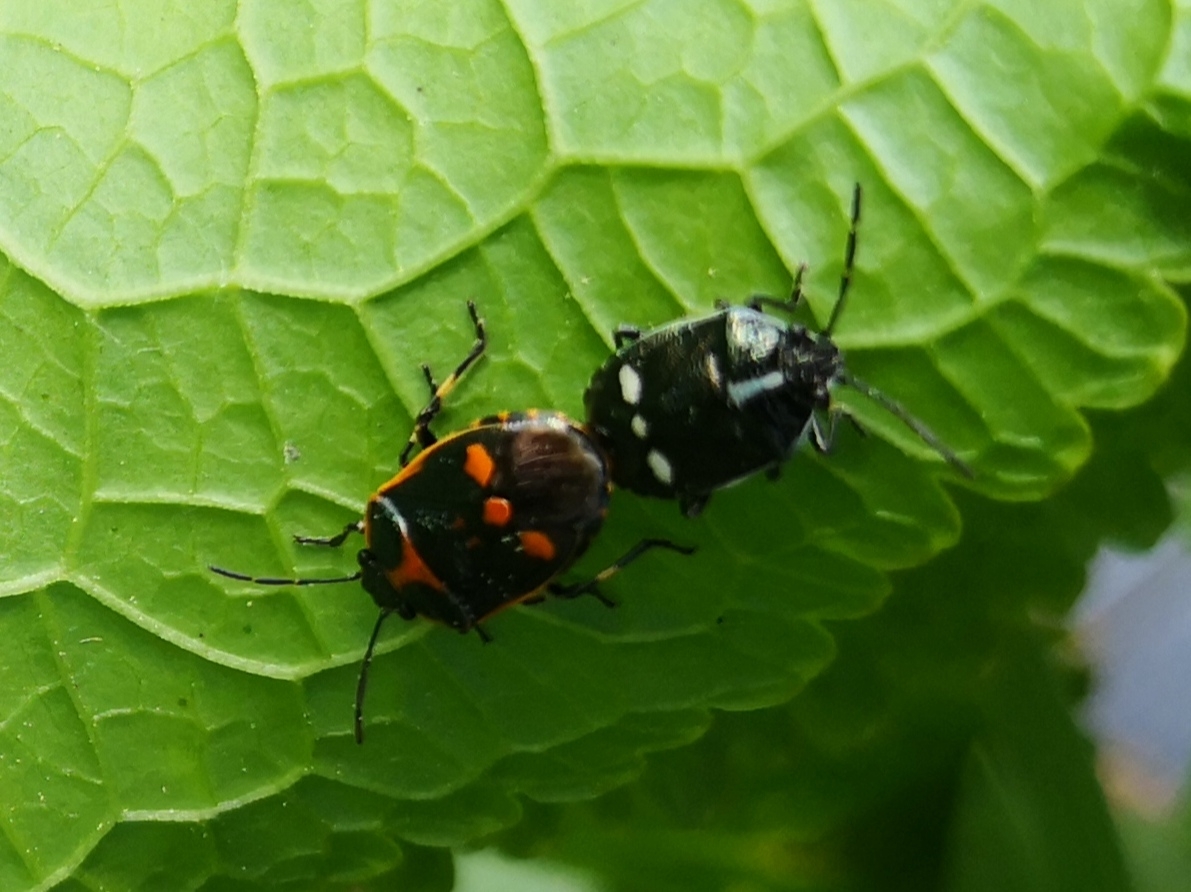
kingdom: Animalia
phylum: Arthropoda
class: Insecta
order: Hemiptera
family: Pentatomidae
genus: Eurydema
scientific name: Eurydema oleracea
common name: Cabbage bug
